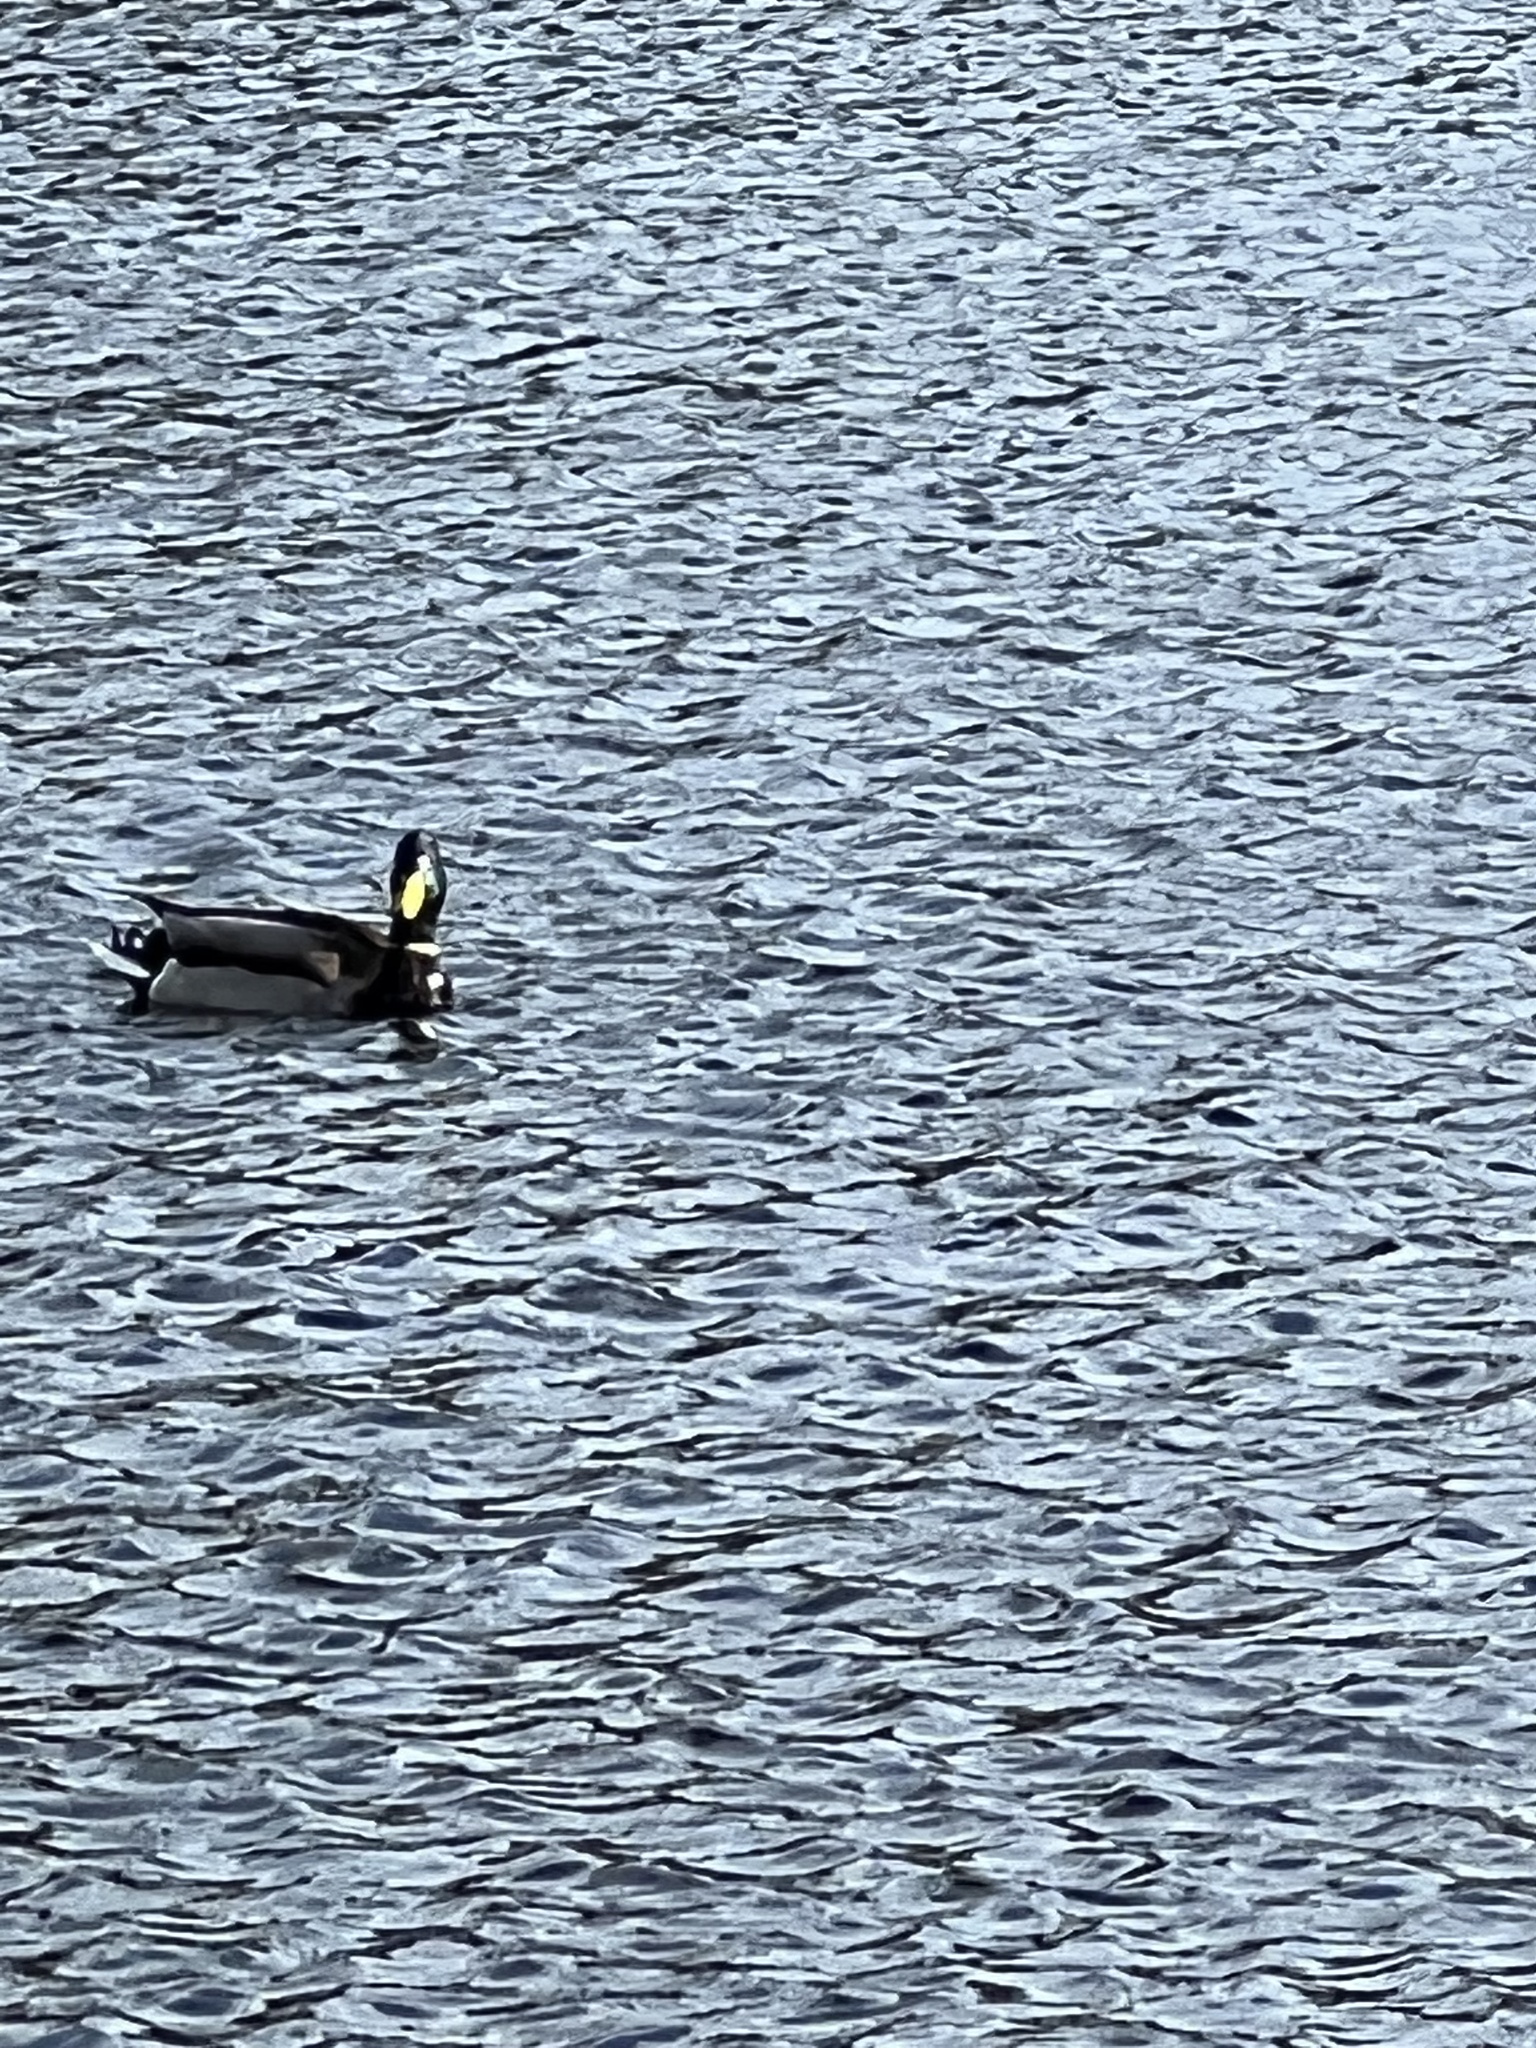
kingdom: Animalia
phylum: Chordata
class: Aves
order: Anseriformes
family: Anatidae
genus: Branta
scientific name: Branta canadensis
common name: Canada goose
